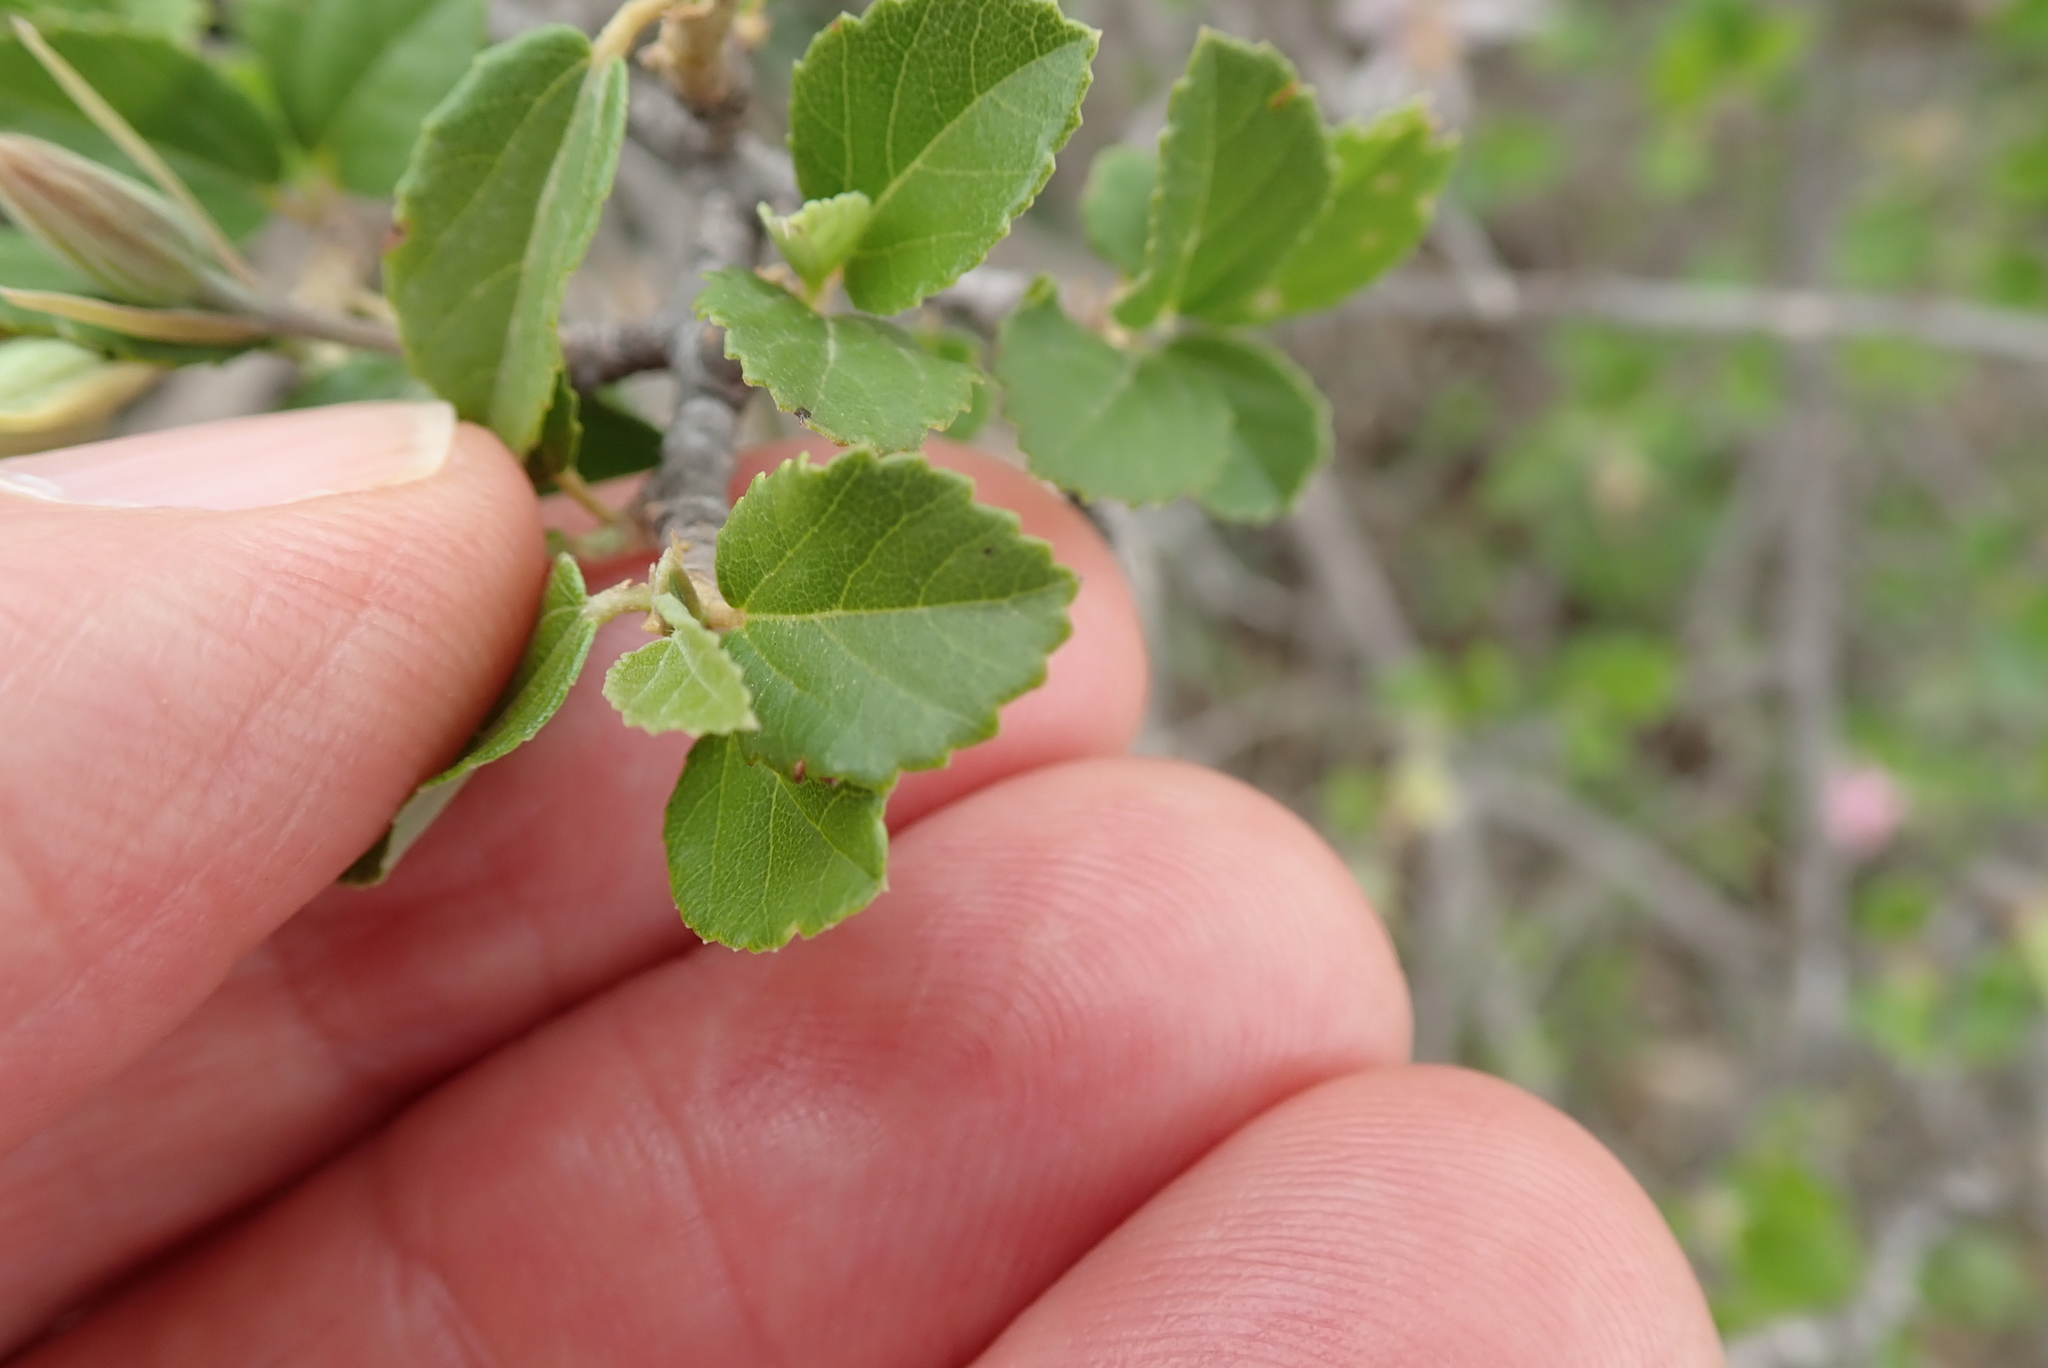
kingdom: Plantae
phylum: Tracheophyta
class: Magnoliopsida
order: Malvales
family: Malvaceae
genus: Grewia
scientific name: Grewia robusta
